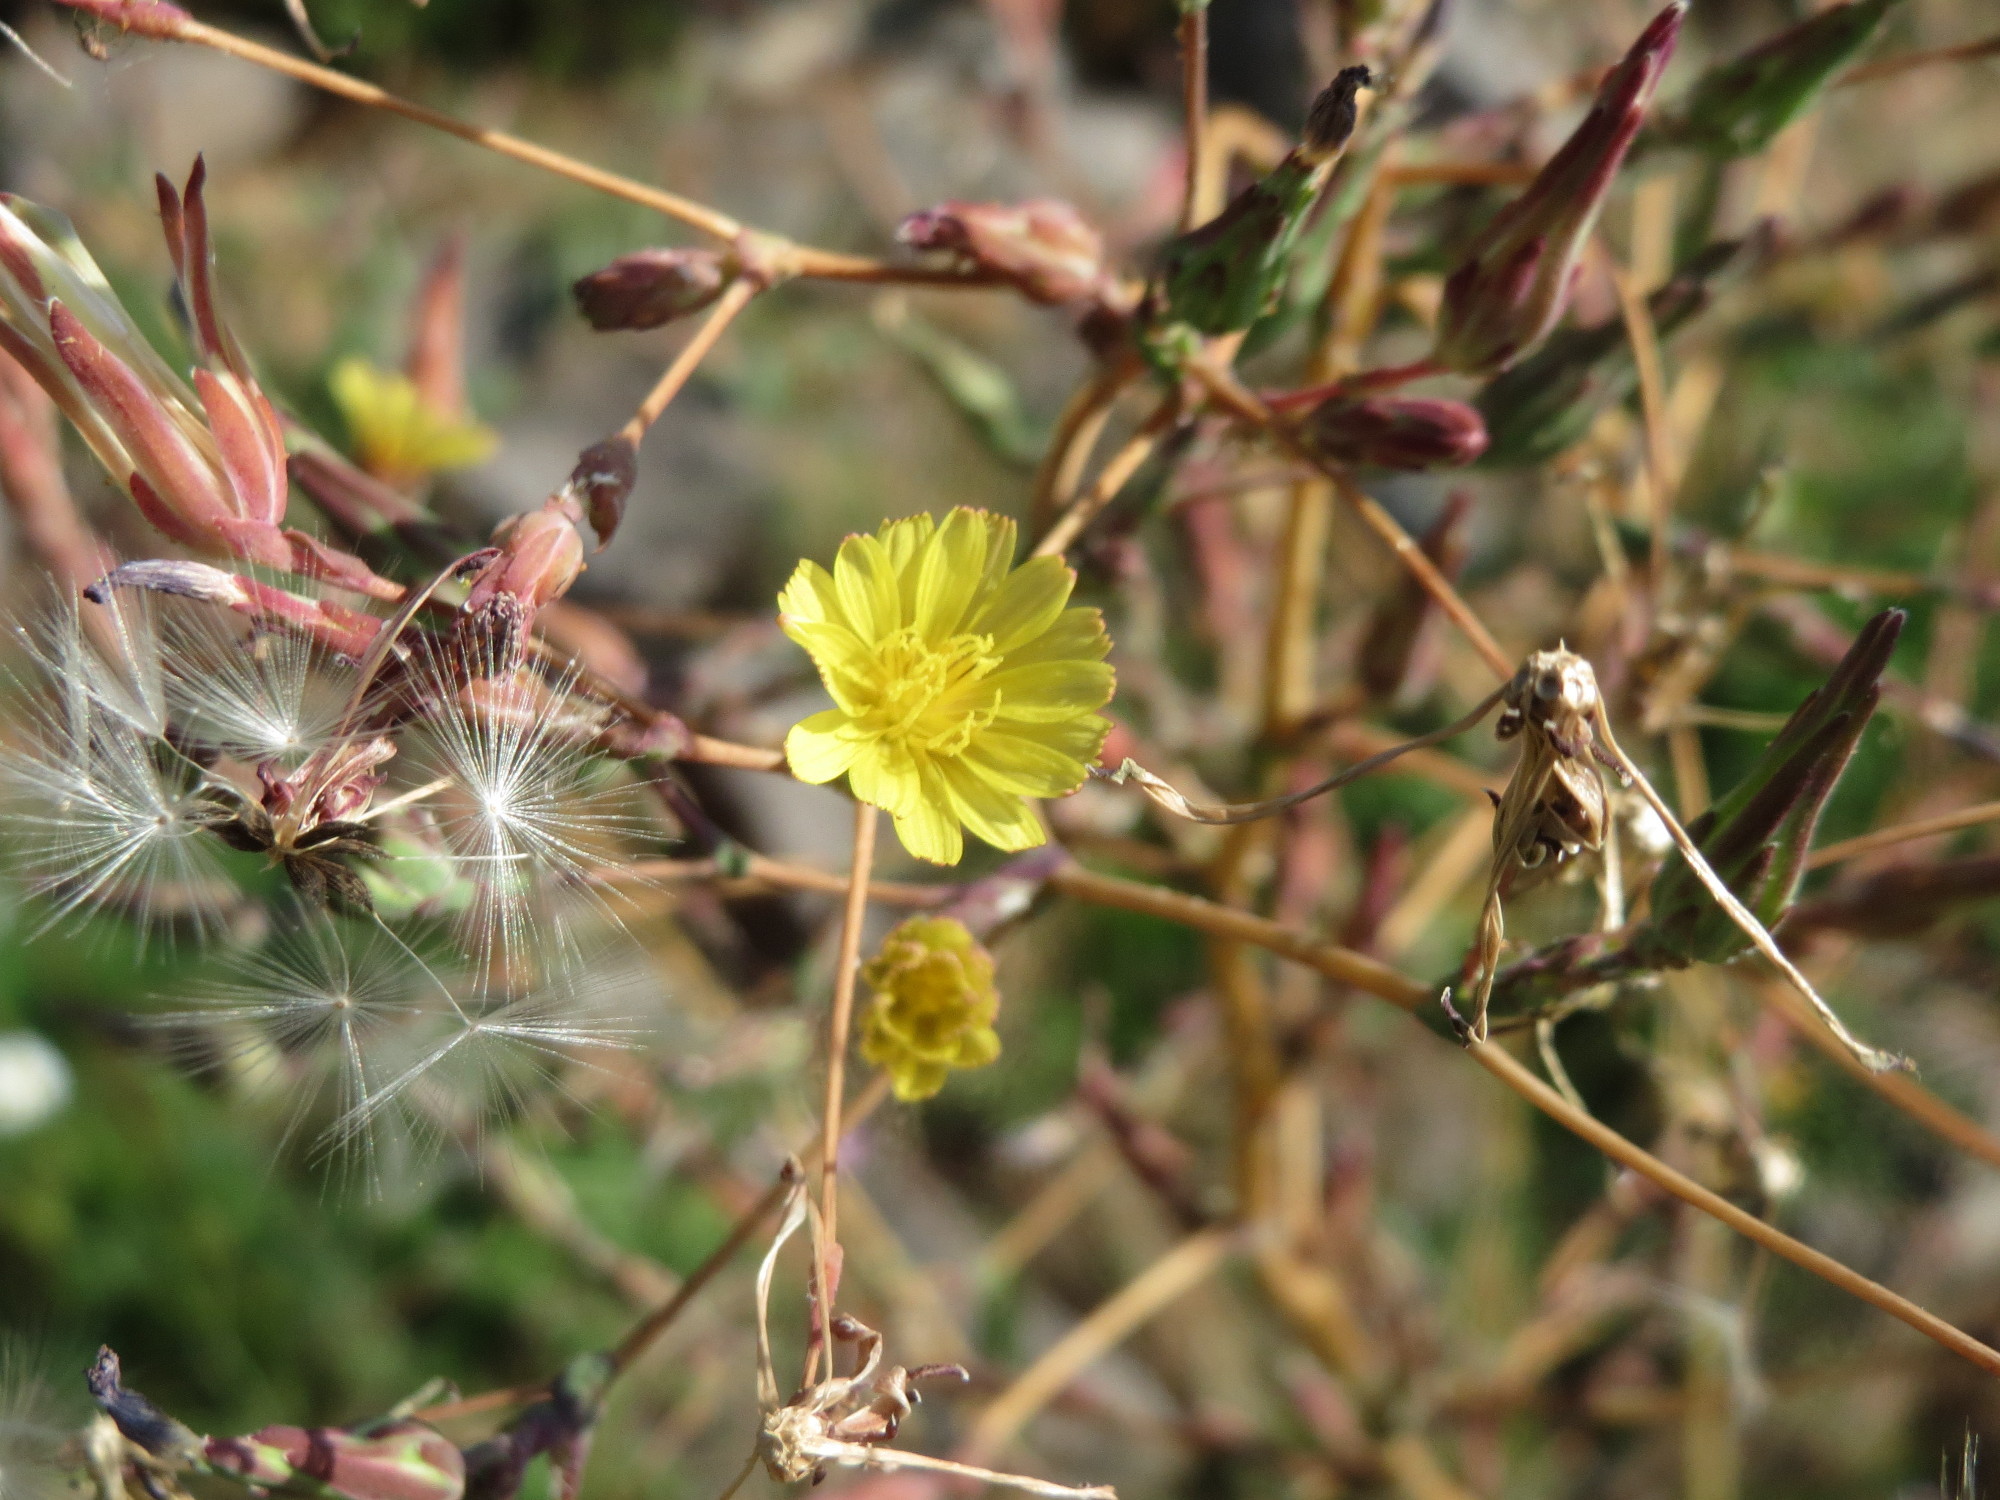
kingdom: Plantae
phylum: Tracheophyta
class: Magnoliopsida
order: Asterales
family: Asteraceae
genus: Lactuca
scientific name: Lactuca serriola
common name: Prickly lettuce
